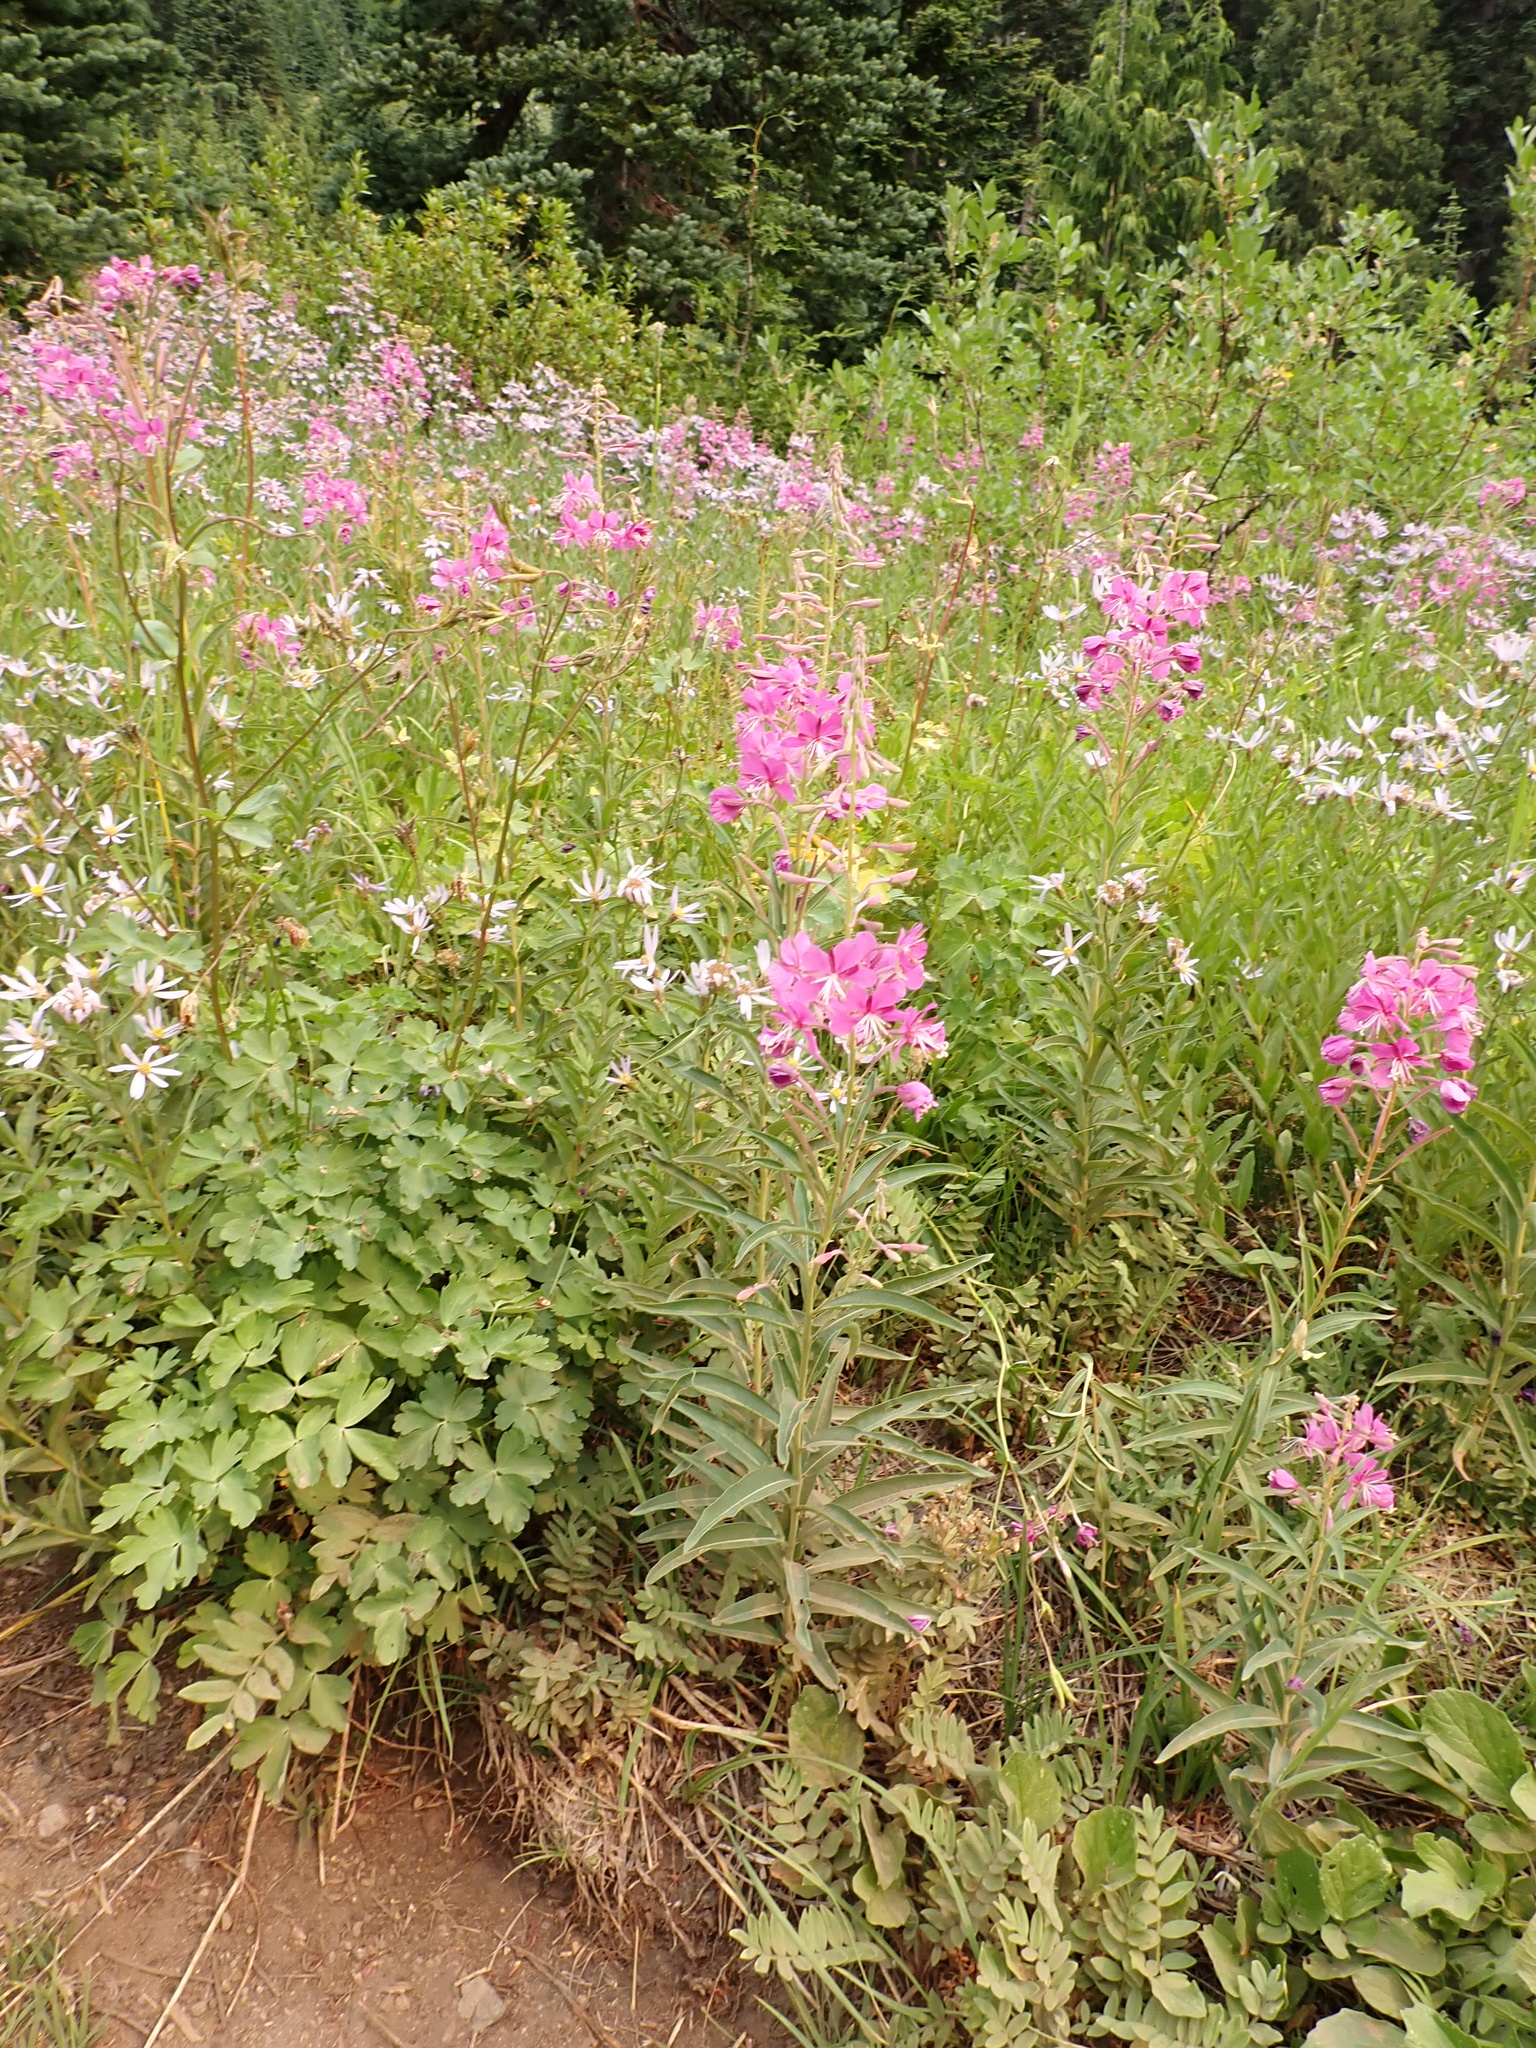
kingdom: Plantae
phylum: Tracheophyta
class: Magnoliopsida
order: Myrtales
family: Onagraceae
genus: Chamaenerion
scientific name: Chamaenerion angustifolium
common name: Fireweed
